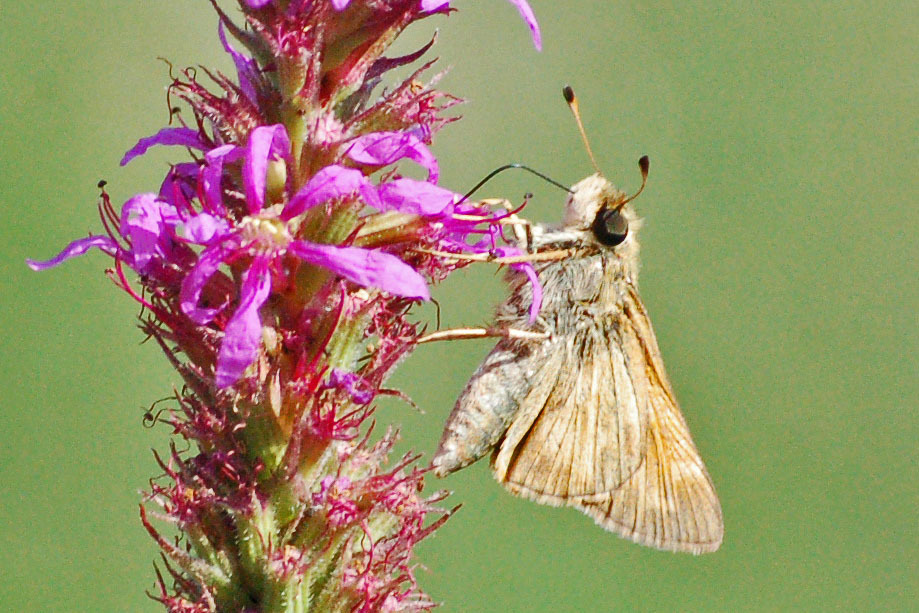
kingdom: Animalia
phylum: Arthropoda
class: Insecta
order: Lepidoptera
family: Hesperiidae
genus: Atalopedes
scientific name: Atalopedes
